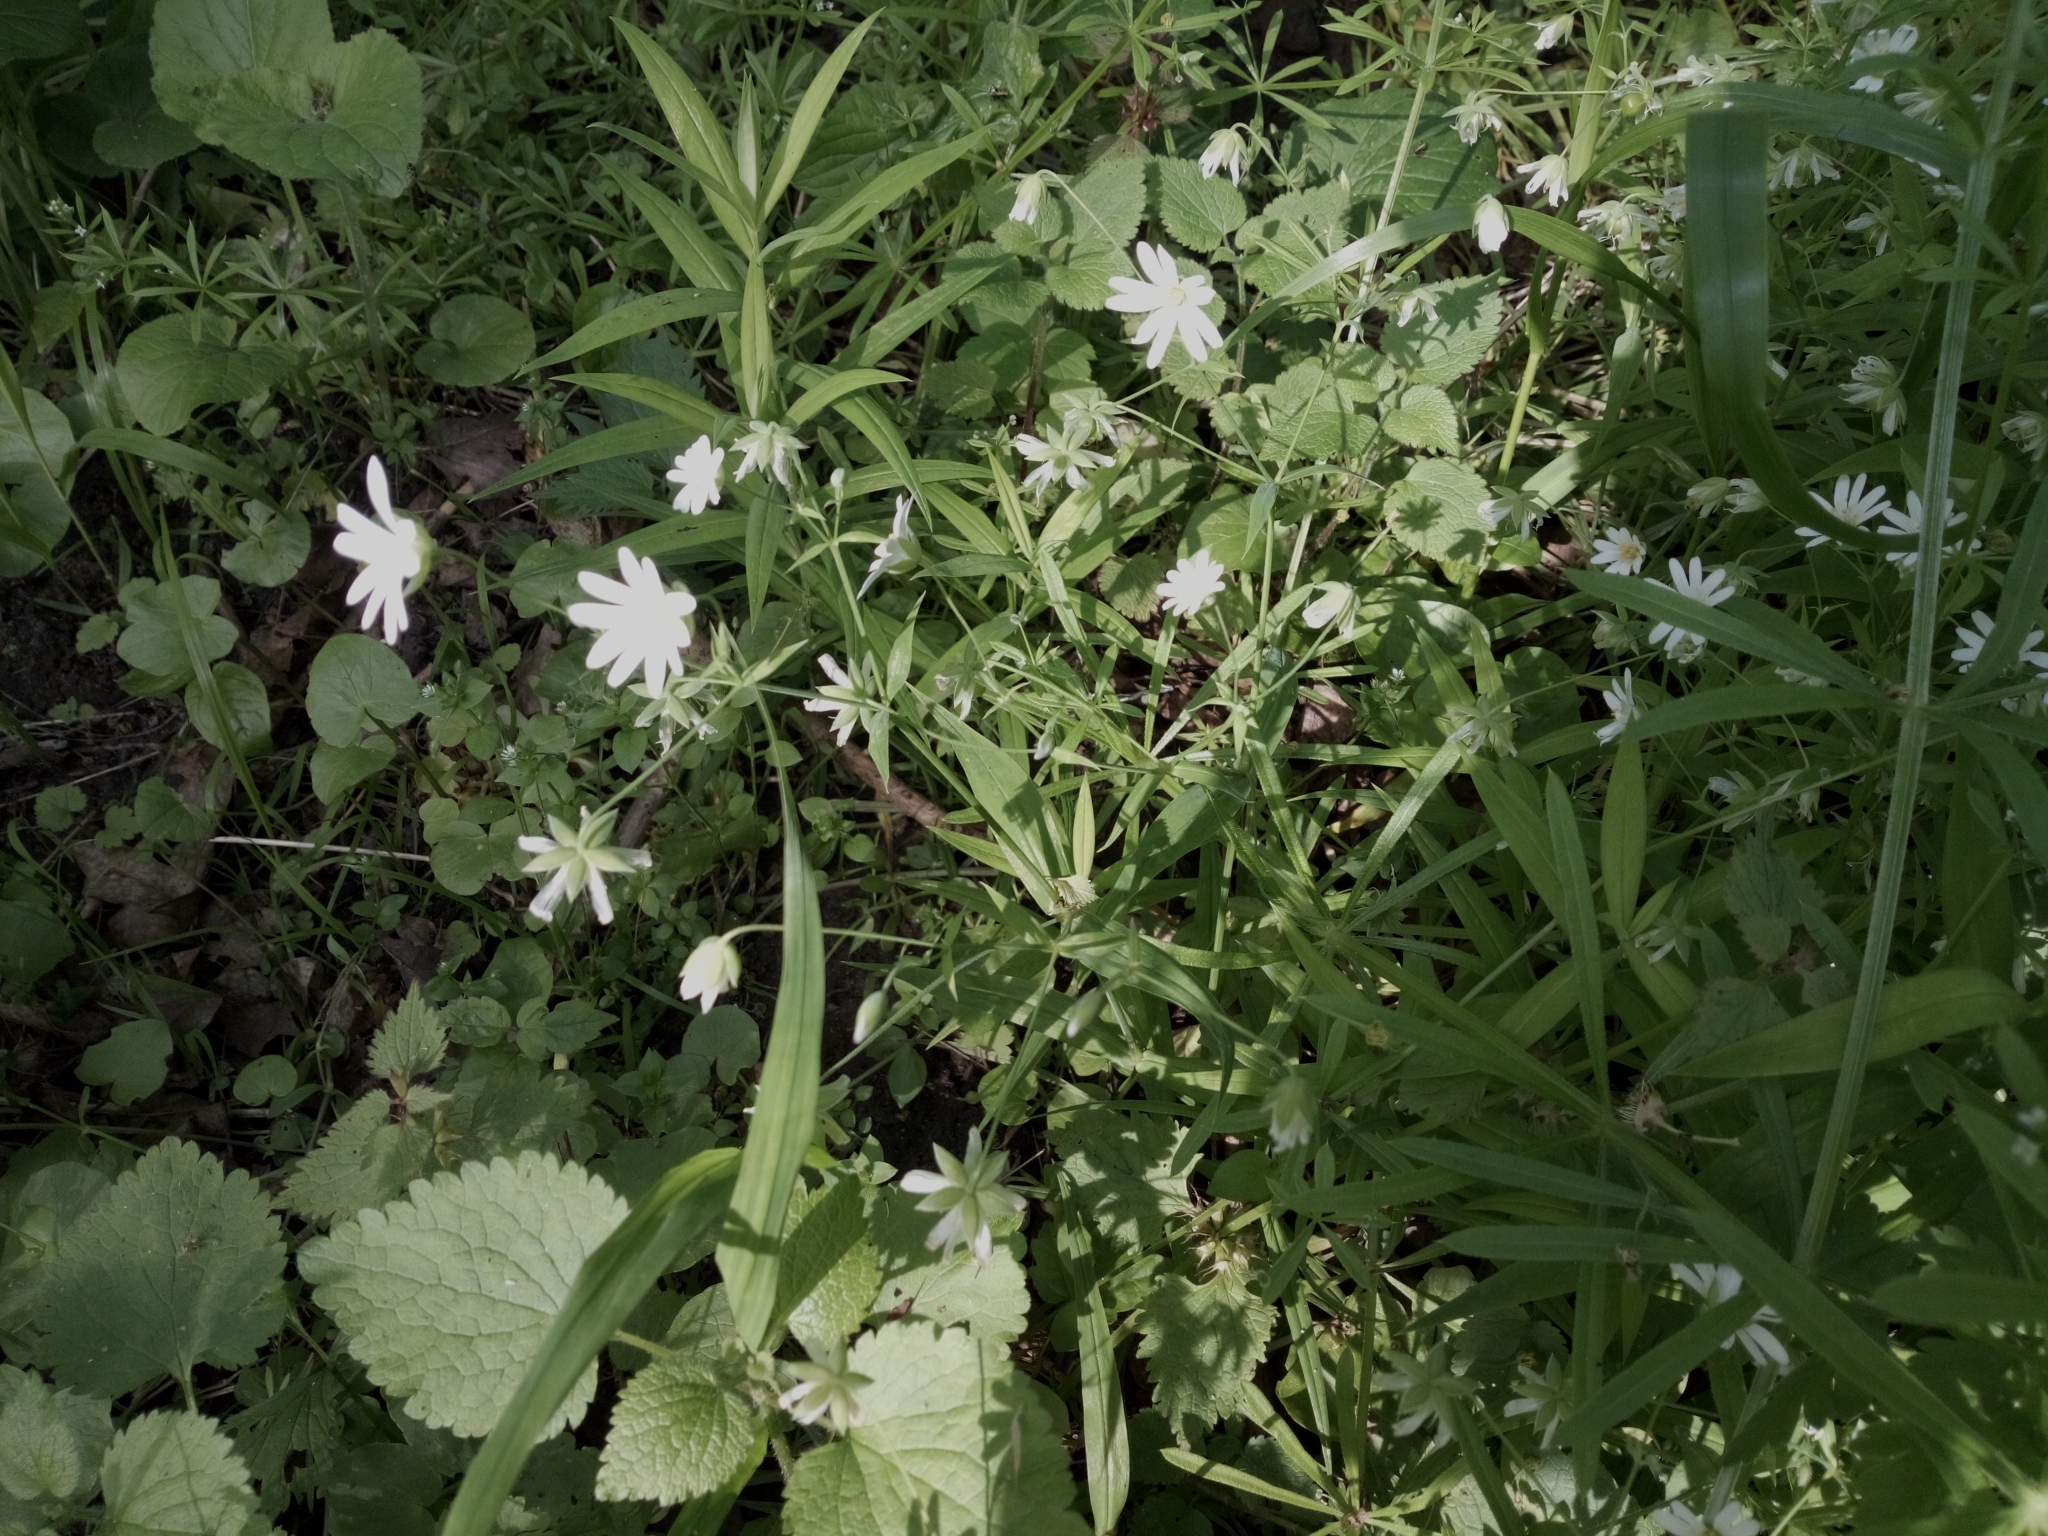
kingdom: Plantae
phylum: Tracheophyta
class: Magnoliopsida
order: Caryophyllales
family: Caryophyllaceae
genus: Rabelera
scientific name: Rabelera holostea
